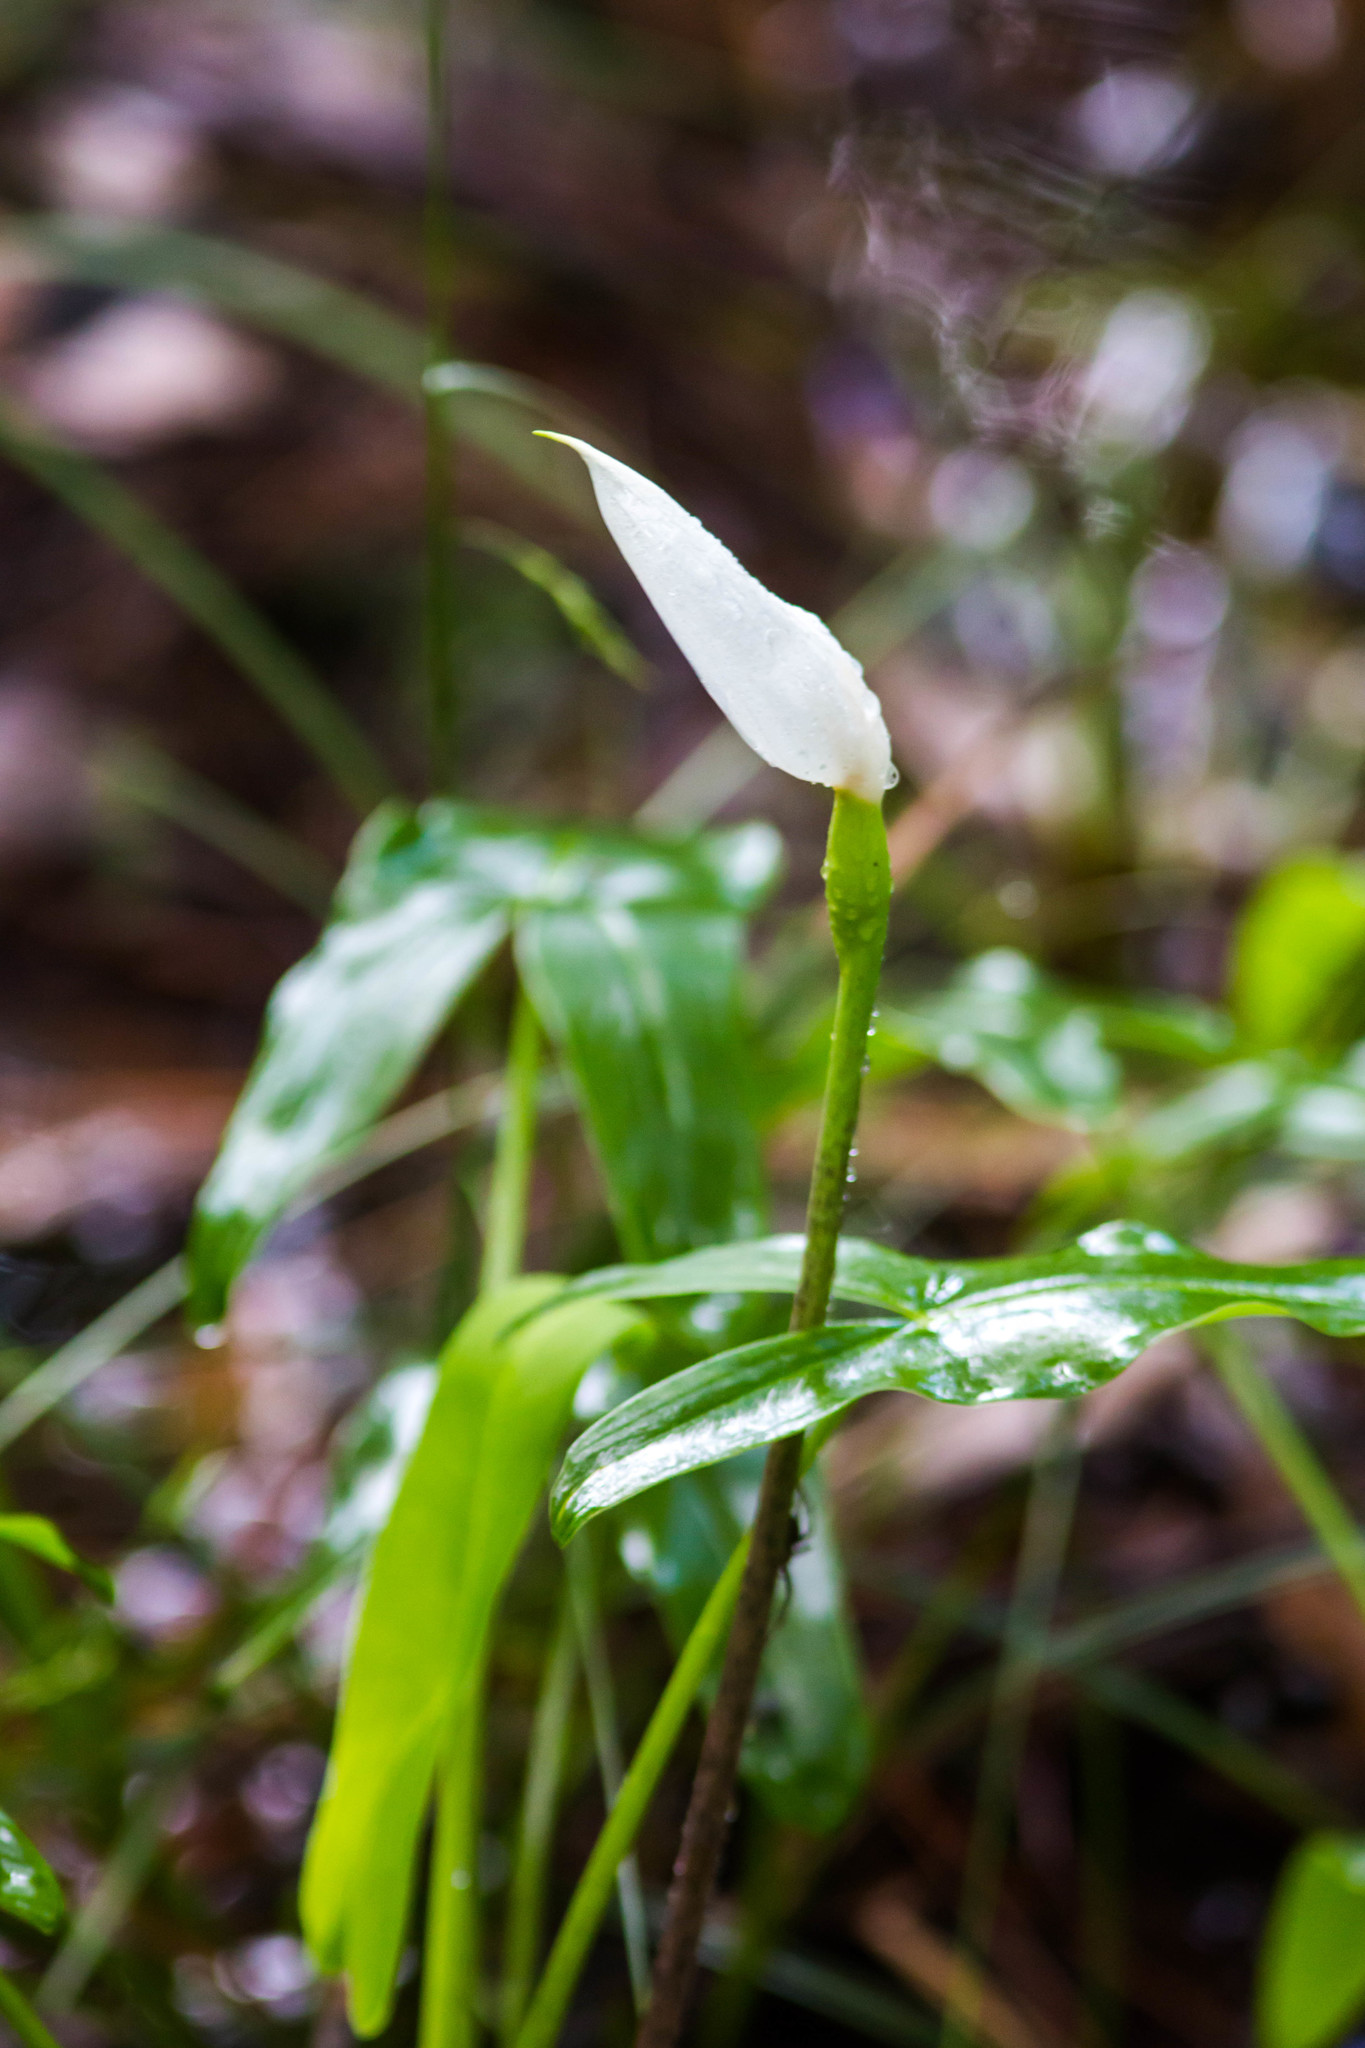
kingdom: Plantae
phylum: Tracheophyta
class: Liliopsida
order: Alismatales
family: Araceae
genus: Peltandra
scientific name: Peltandra sagittifolia
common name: White arrow arum
